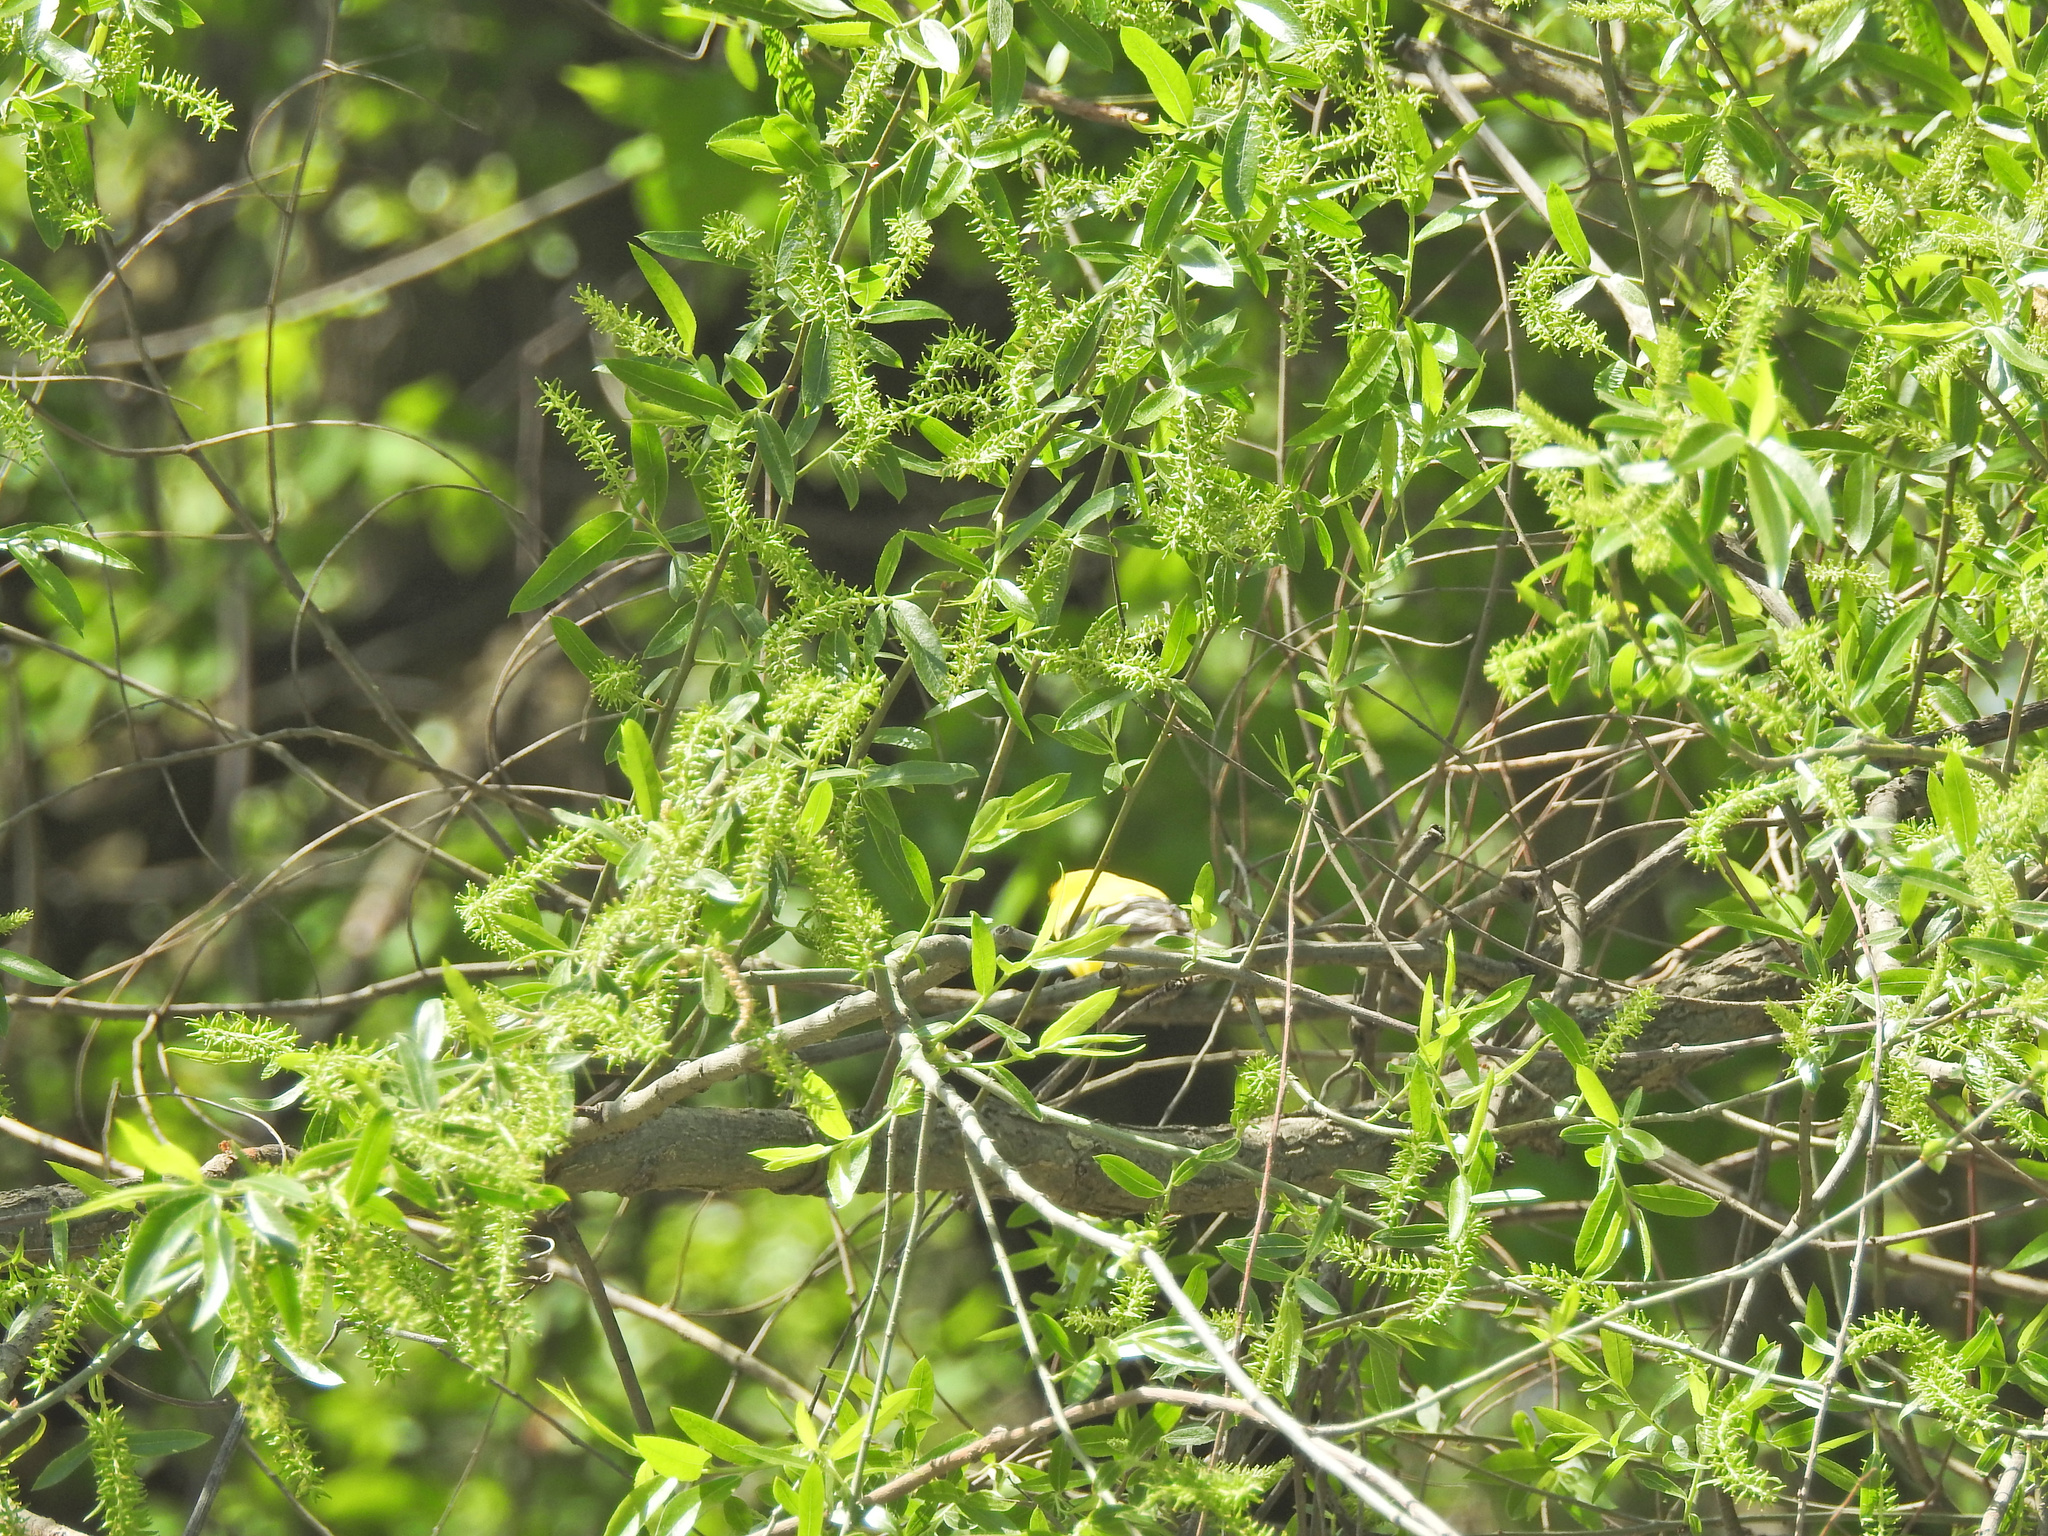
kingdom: Animalia
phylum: Chordata
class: Aves
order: Passeriformes
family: Fringillidae
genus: Spinus
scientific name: Spinus tristis
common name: American goldfinch
